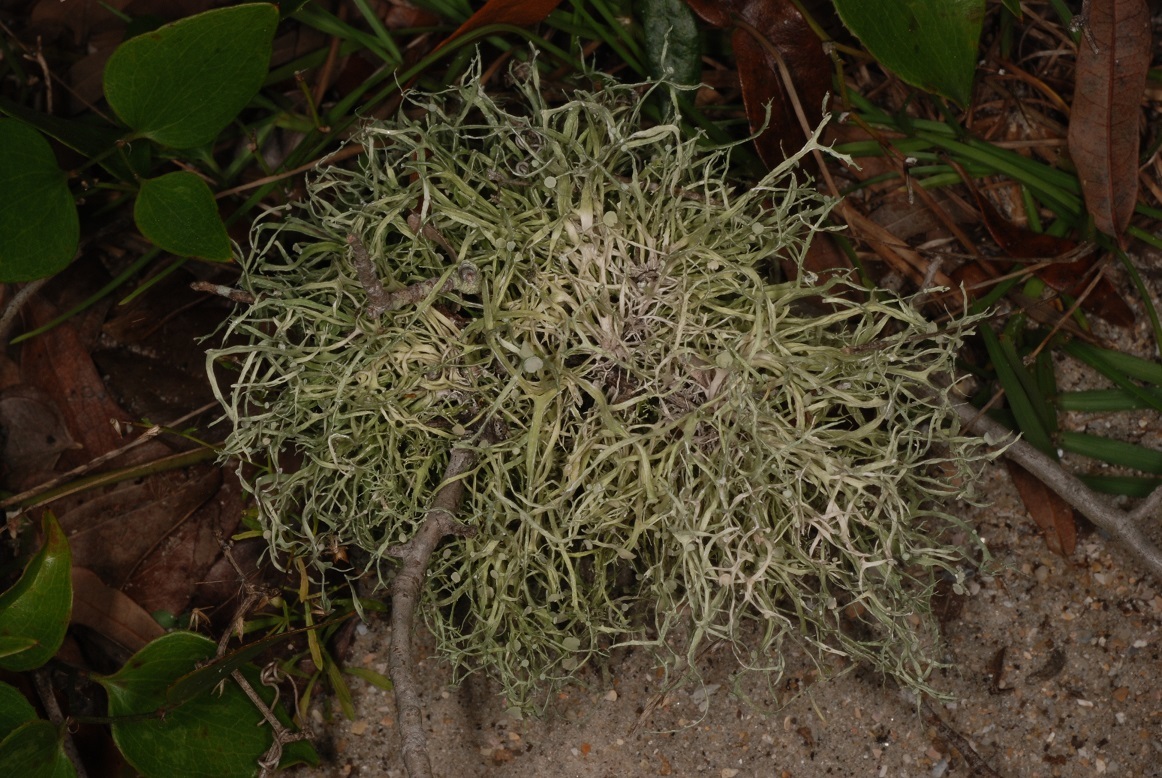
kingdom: Fungi
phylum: Ascomycota
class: Lecanoromycetes
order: Lecanorales
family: Ramalinaceae
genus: Ramalina
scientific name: Ramalina stenospora
